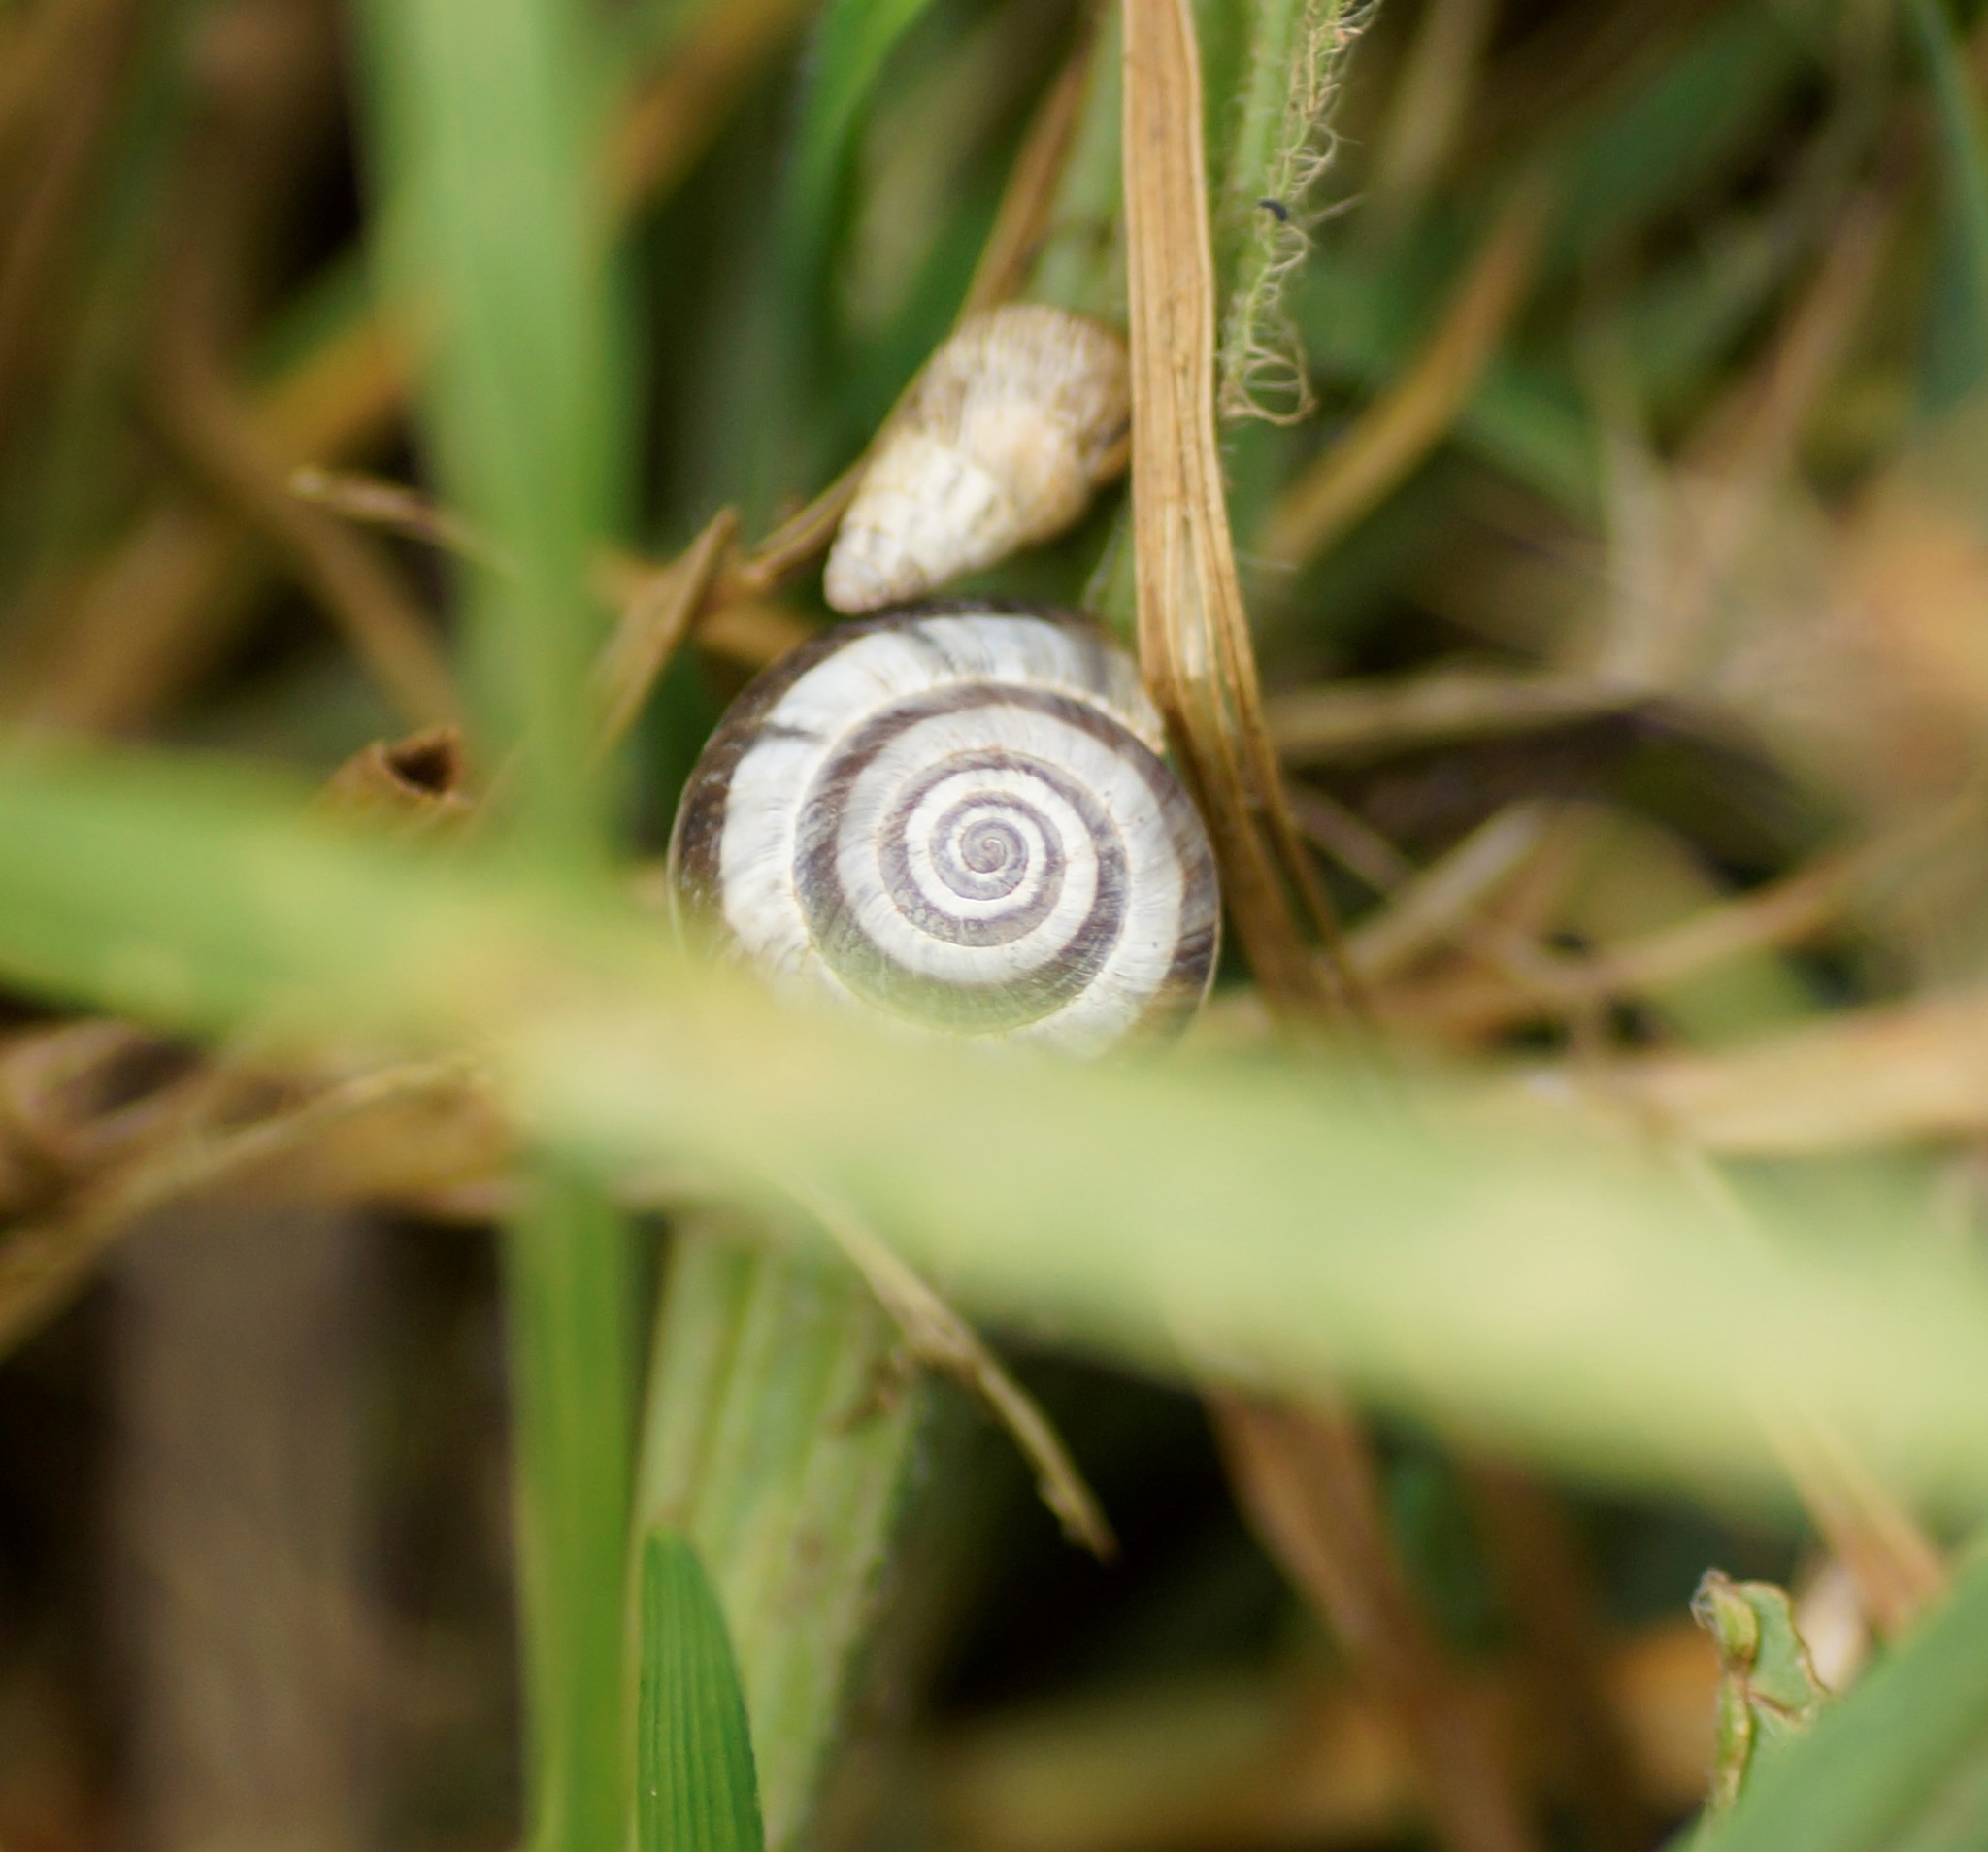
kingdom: Animalia
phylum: Mollusca
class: Gastropoda
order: Stylommatophora
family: Geomitridae
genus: Cernuella
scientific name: Cernuella virgata
